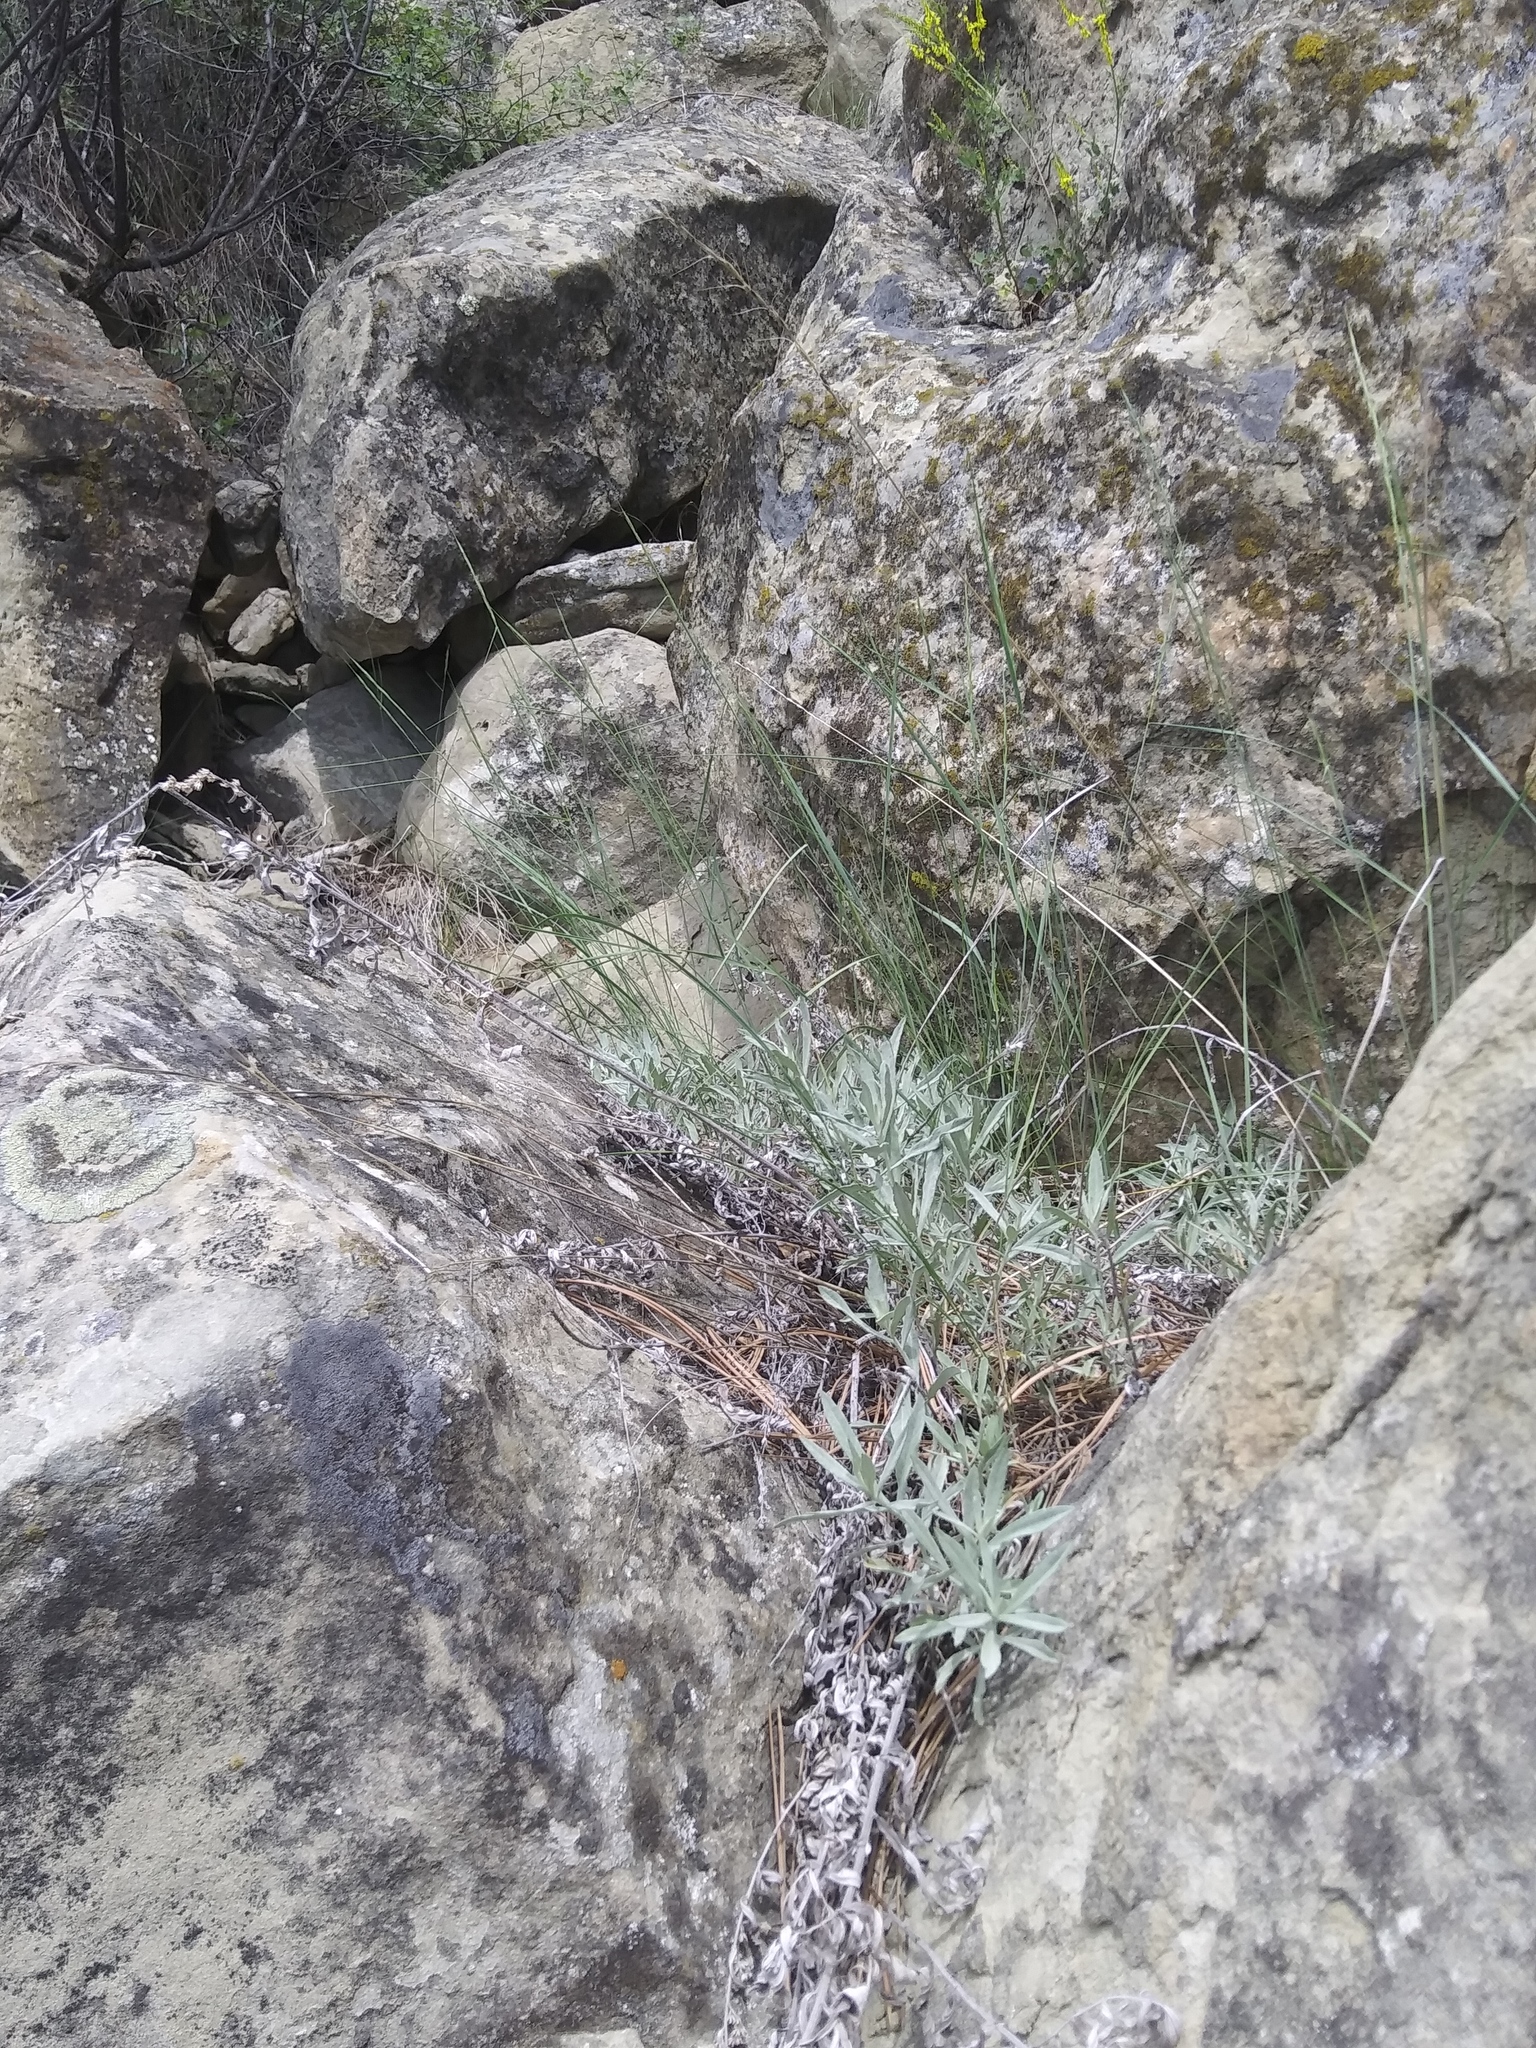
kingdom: Plantae
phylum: Tracheophyta
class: Magnoliopsida
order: Asterales
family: Asteraceae
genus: Artemisia
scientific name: Artemisia ludoviciana
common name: Western mugwort
